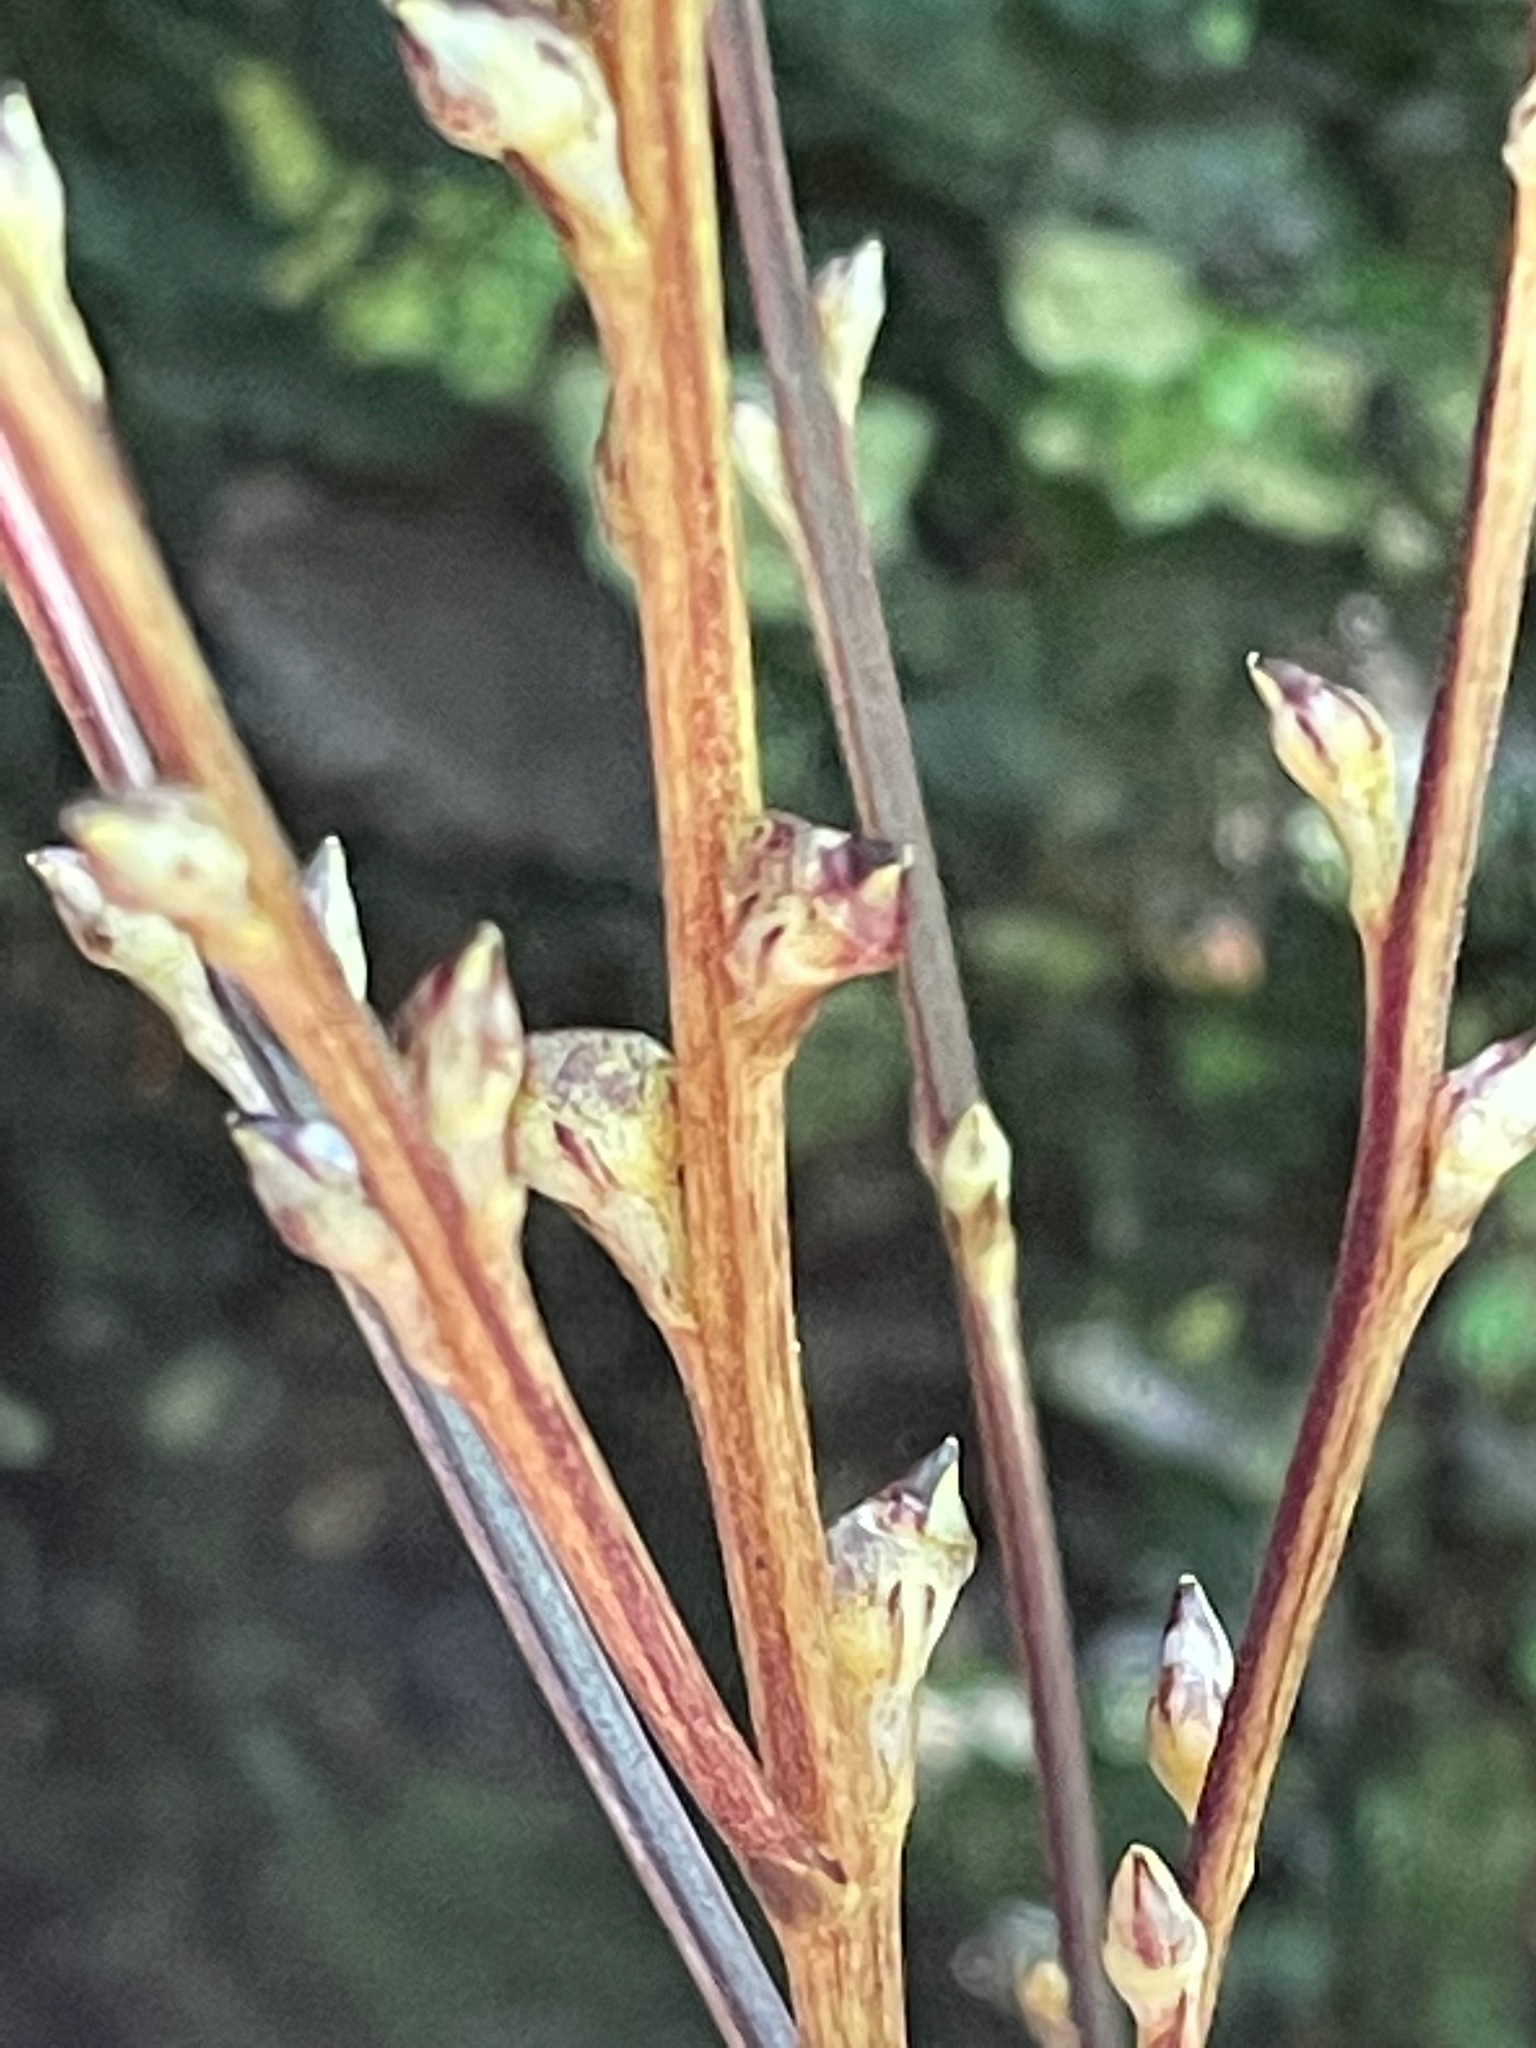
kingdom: Plantae
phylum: Tracheophyta
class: Magnoliopsida
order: Lamiales
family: Orobanchaceae
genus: Epifagus
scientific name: Epifagus virginiana
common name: Beechdrops
